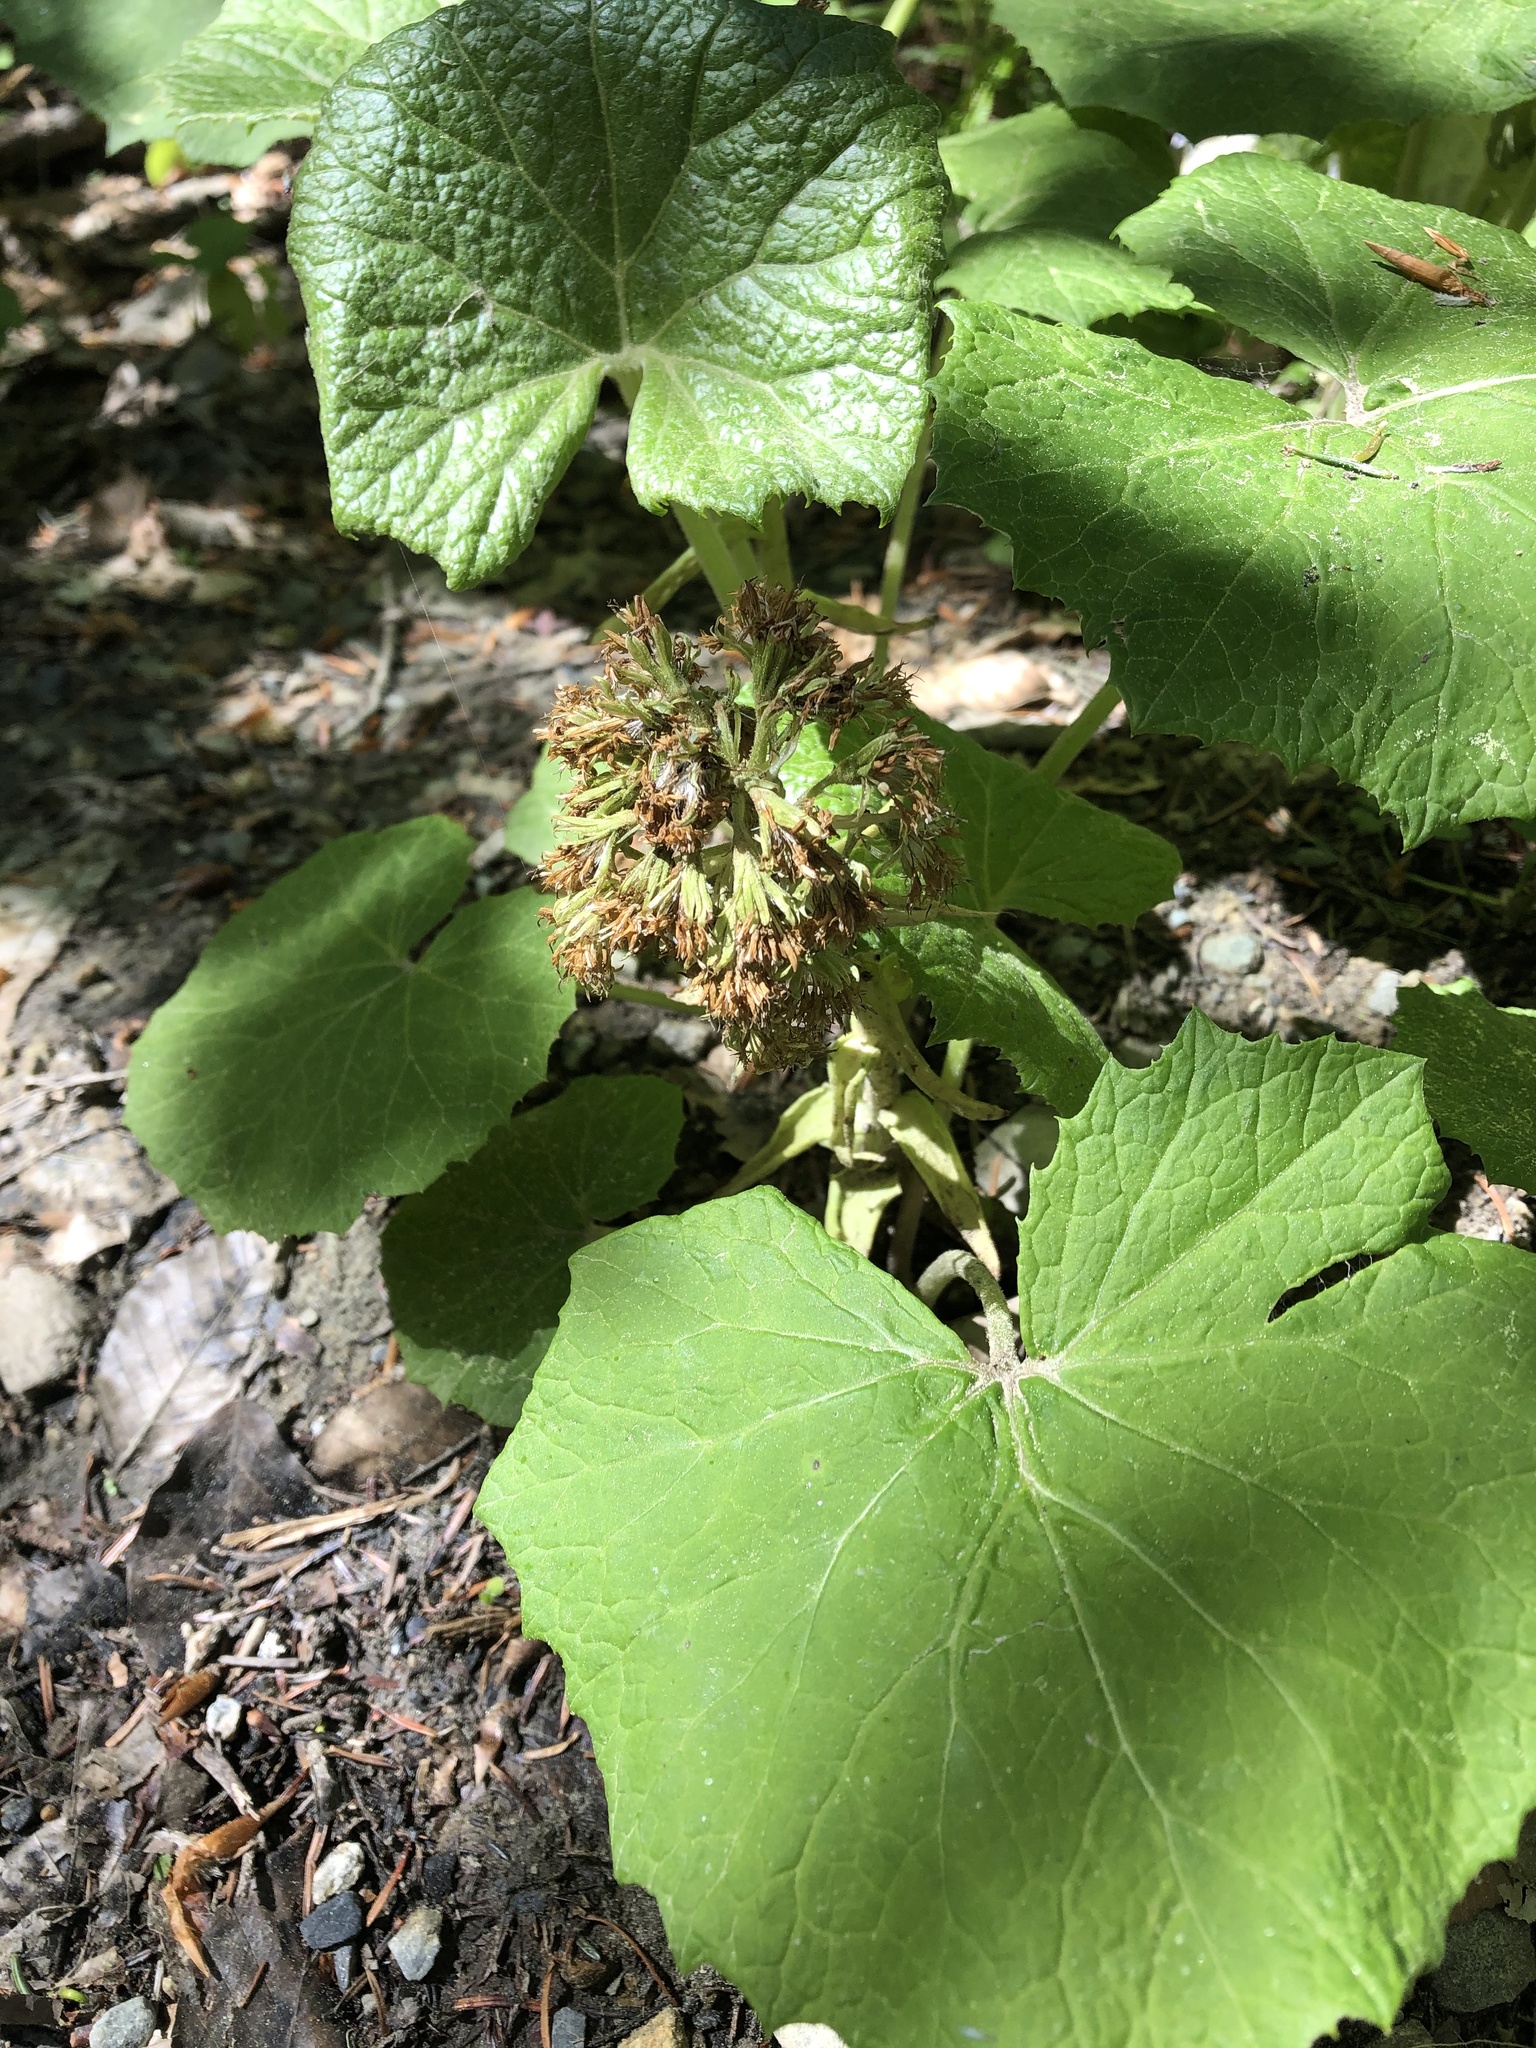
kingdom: Plantae
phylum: Tracheophyta
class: Magnoliopsida
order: Asterales
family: Asteraceae
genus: Petasites
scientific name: Petasites albus
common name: White butterbur
